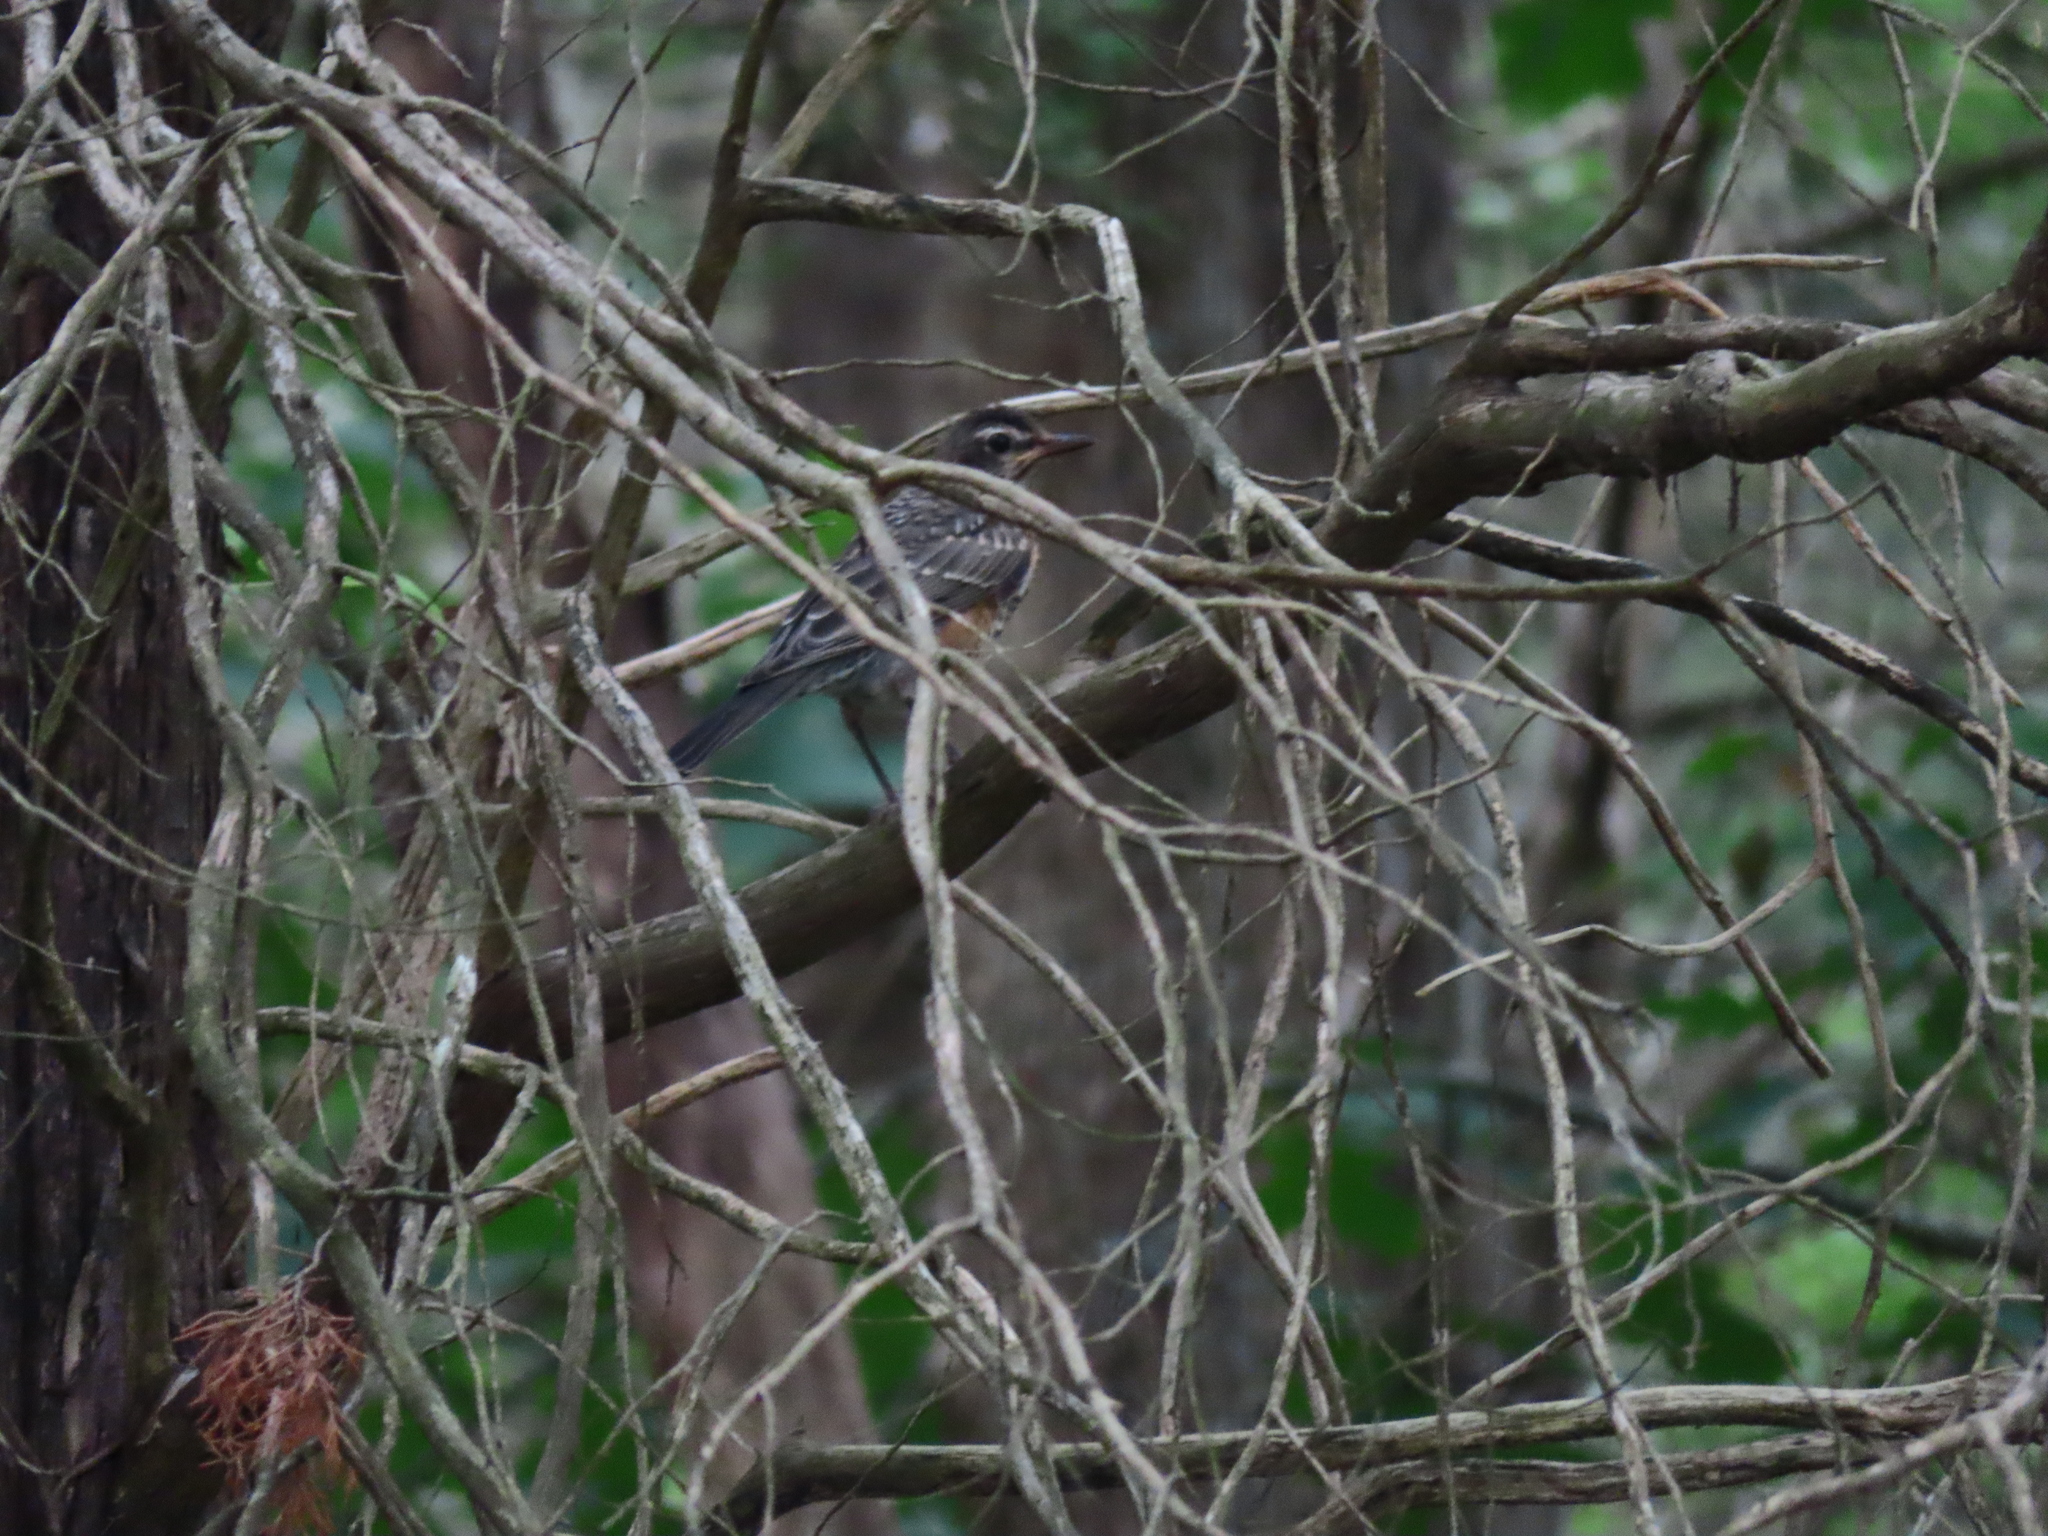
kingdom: Animalia
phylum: Chordata
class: Aves
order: Passeriformes
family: Turdidae
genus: Turdus
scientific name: Turdus migratorius
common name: American robin
